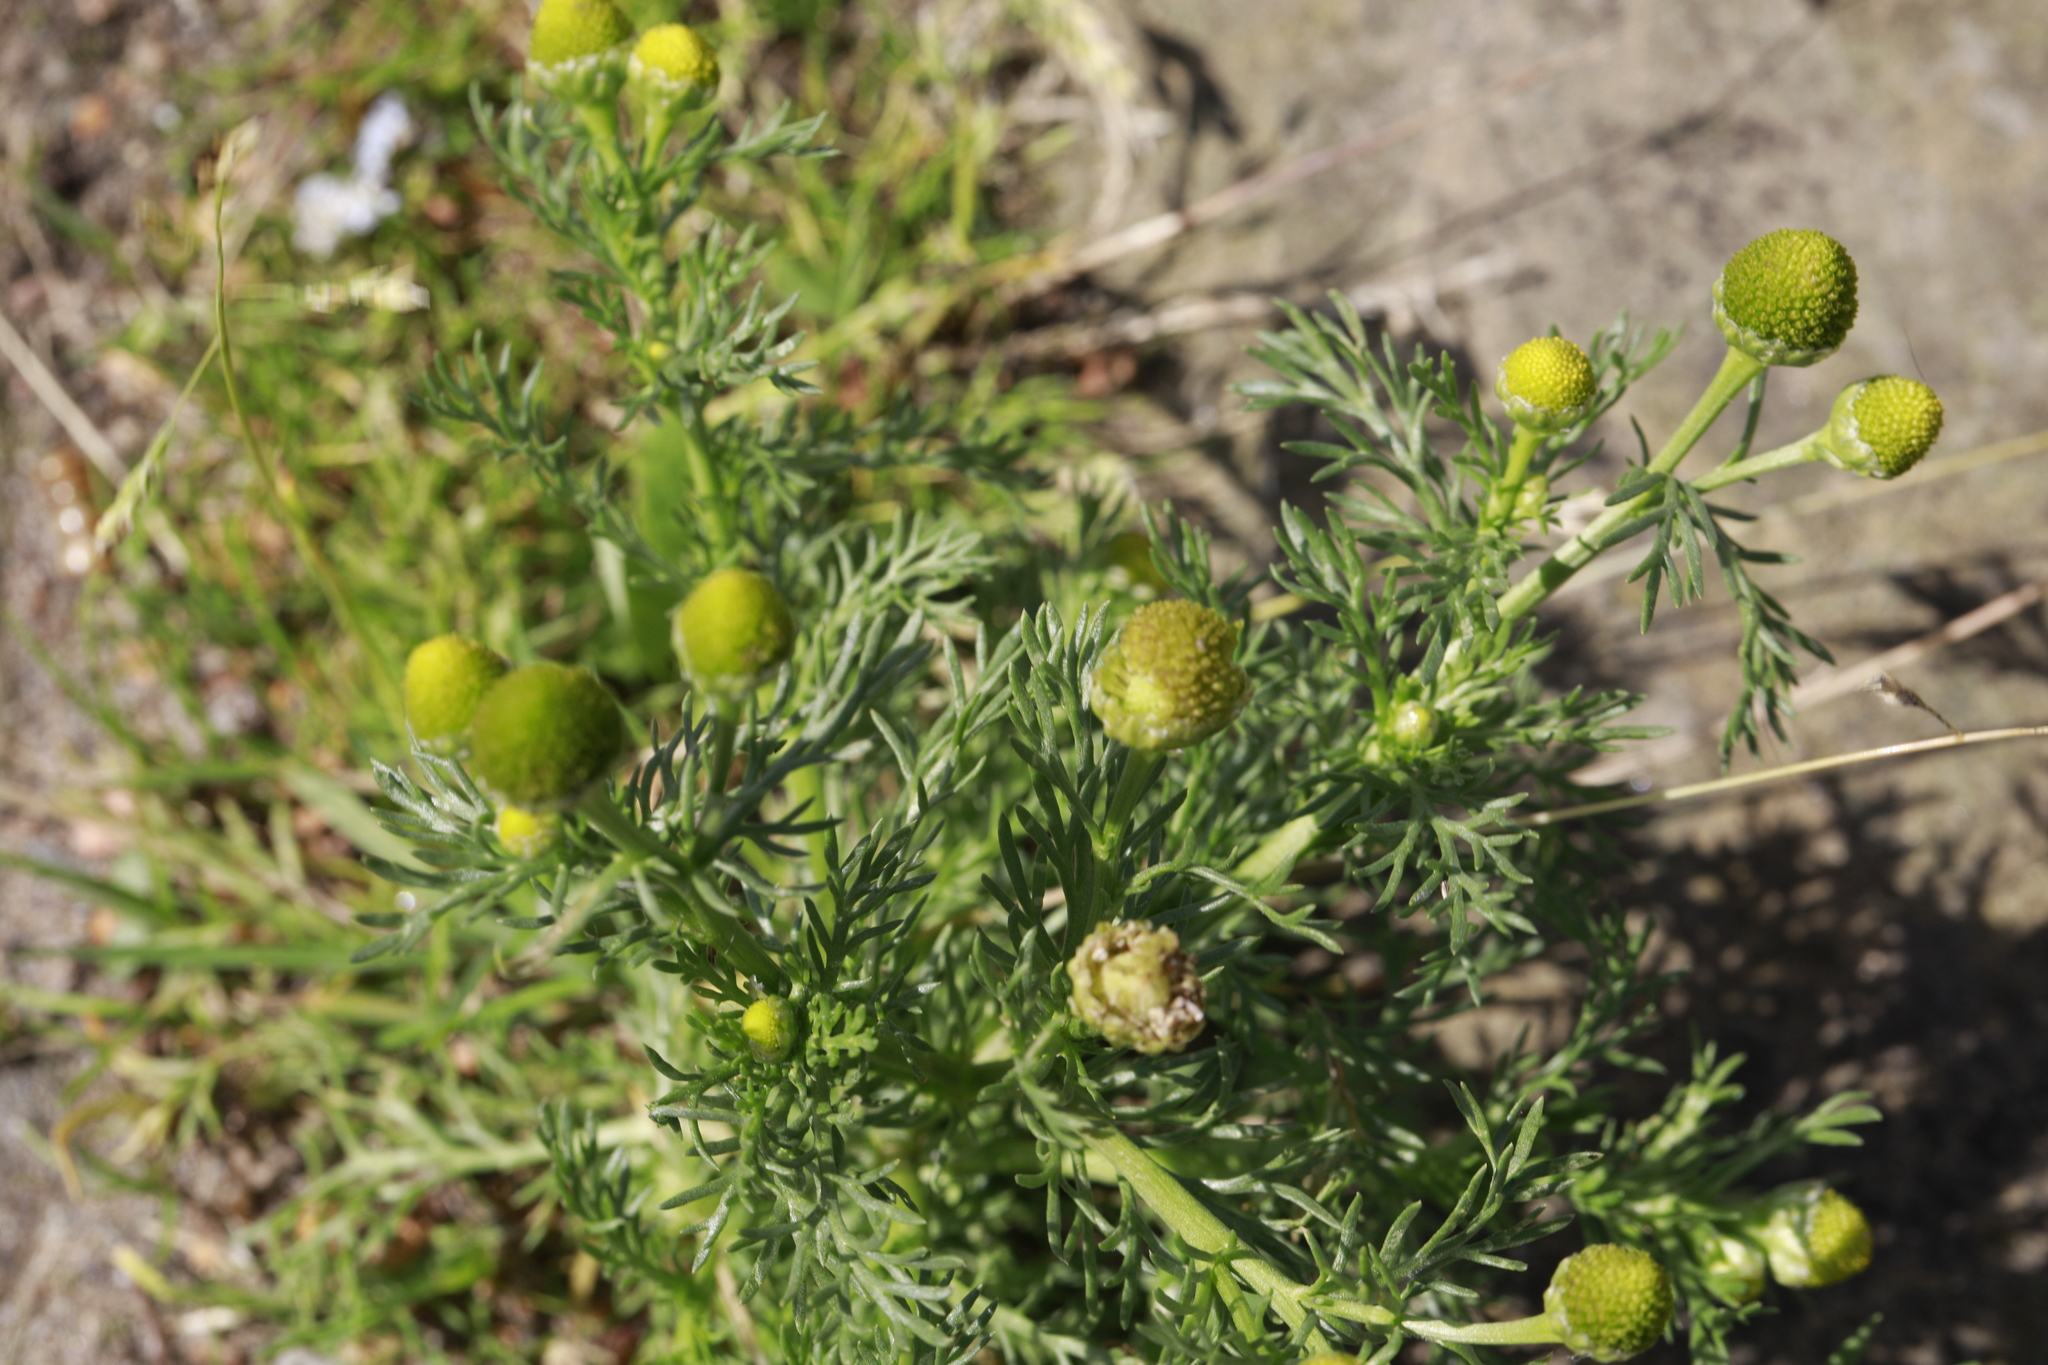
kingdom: Plantae
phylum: Tracheophyta
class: Magnoliopsida
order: Asterales
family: Asteraceae
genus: Matricaria
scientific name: Matricaria discoidea
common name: Disc mayweed
